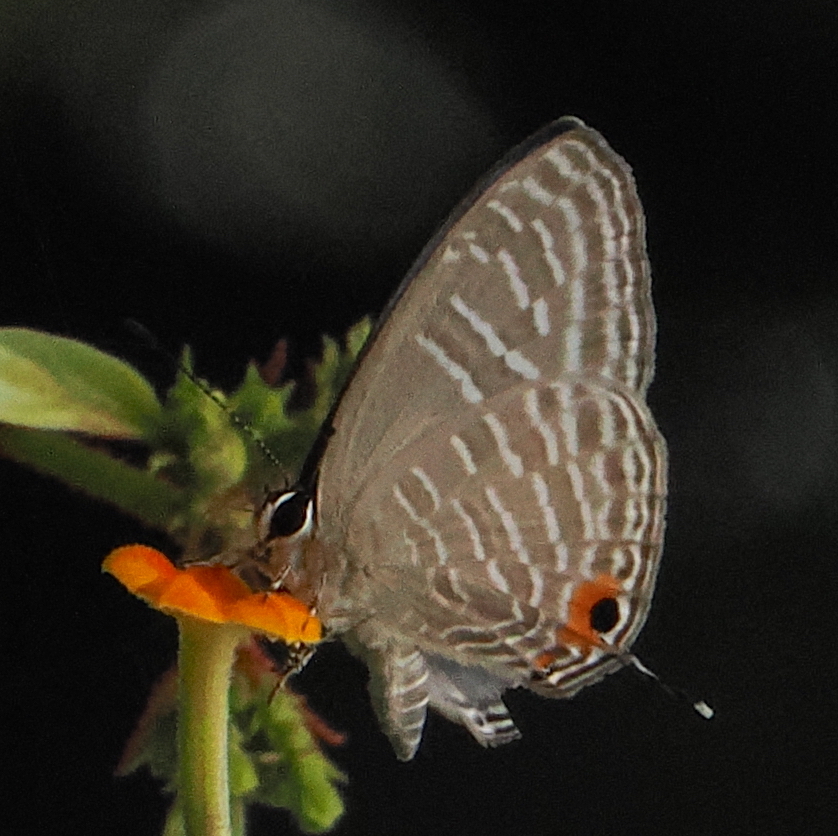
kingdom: Animalia
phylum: Arthropoda
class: Insecta
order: Lepidoptera
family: Lycaenidae
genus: Jamides
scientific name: Jamides alecto
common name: Metallic cerulean
